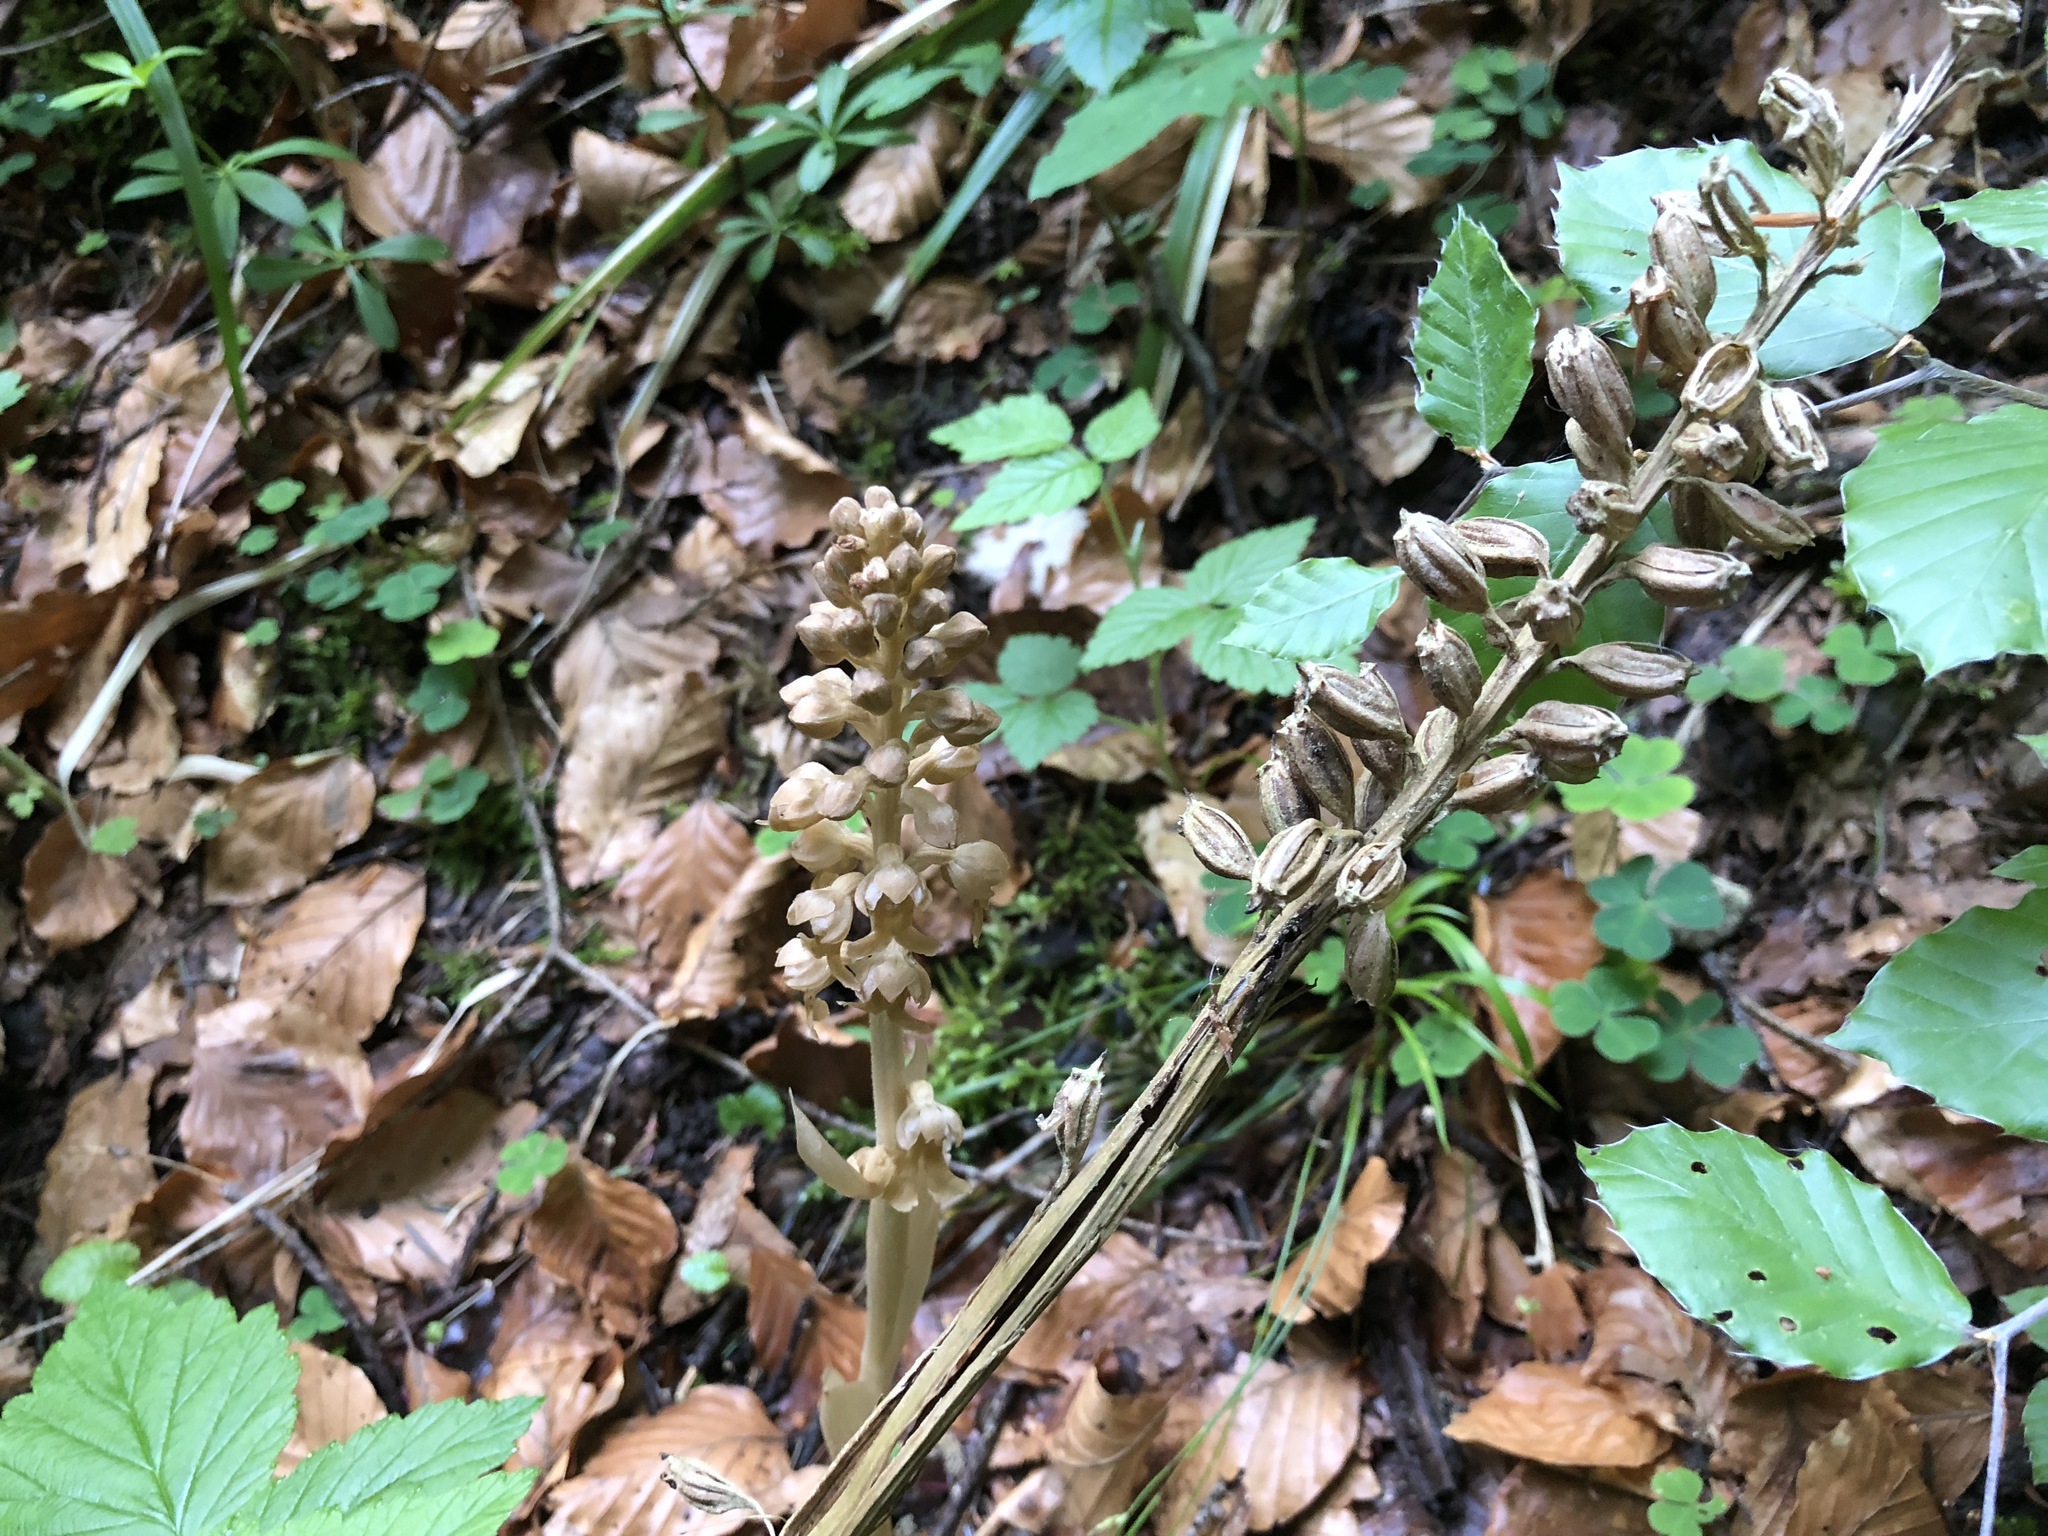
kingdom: Plantae
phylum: Tracheophyta
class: Liliopsida
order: Asparagales
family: Orchidaceae
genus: Neottia
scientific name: Neottia nidus-avis
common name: Bird's-nest orchid
